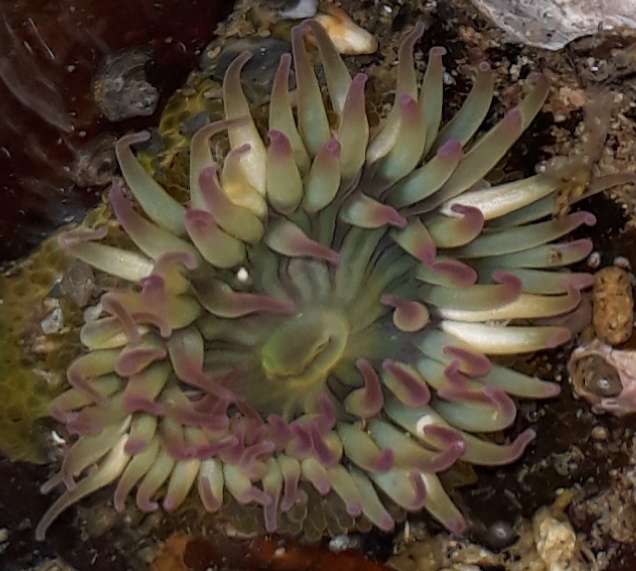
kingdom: Animalia
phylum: Cnidaria
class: Anthozoa
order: Actiniaria
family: Actiniidae
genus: Anthopleura
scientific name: Anthopleura elegantissima
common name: Clonal anemone
